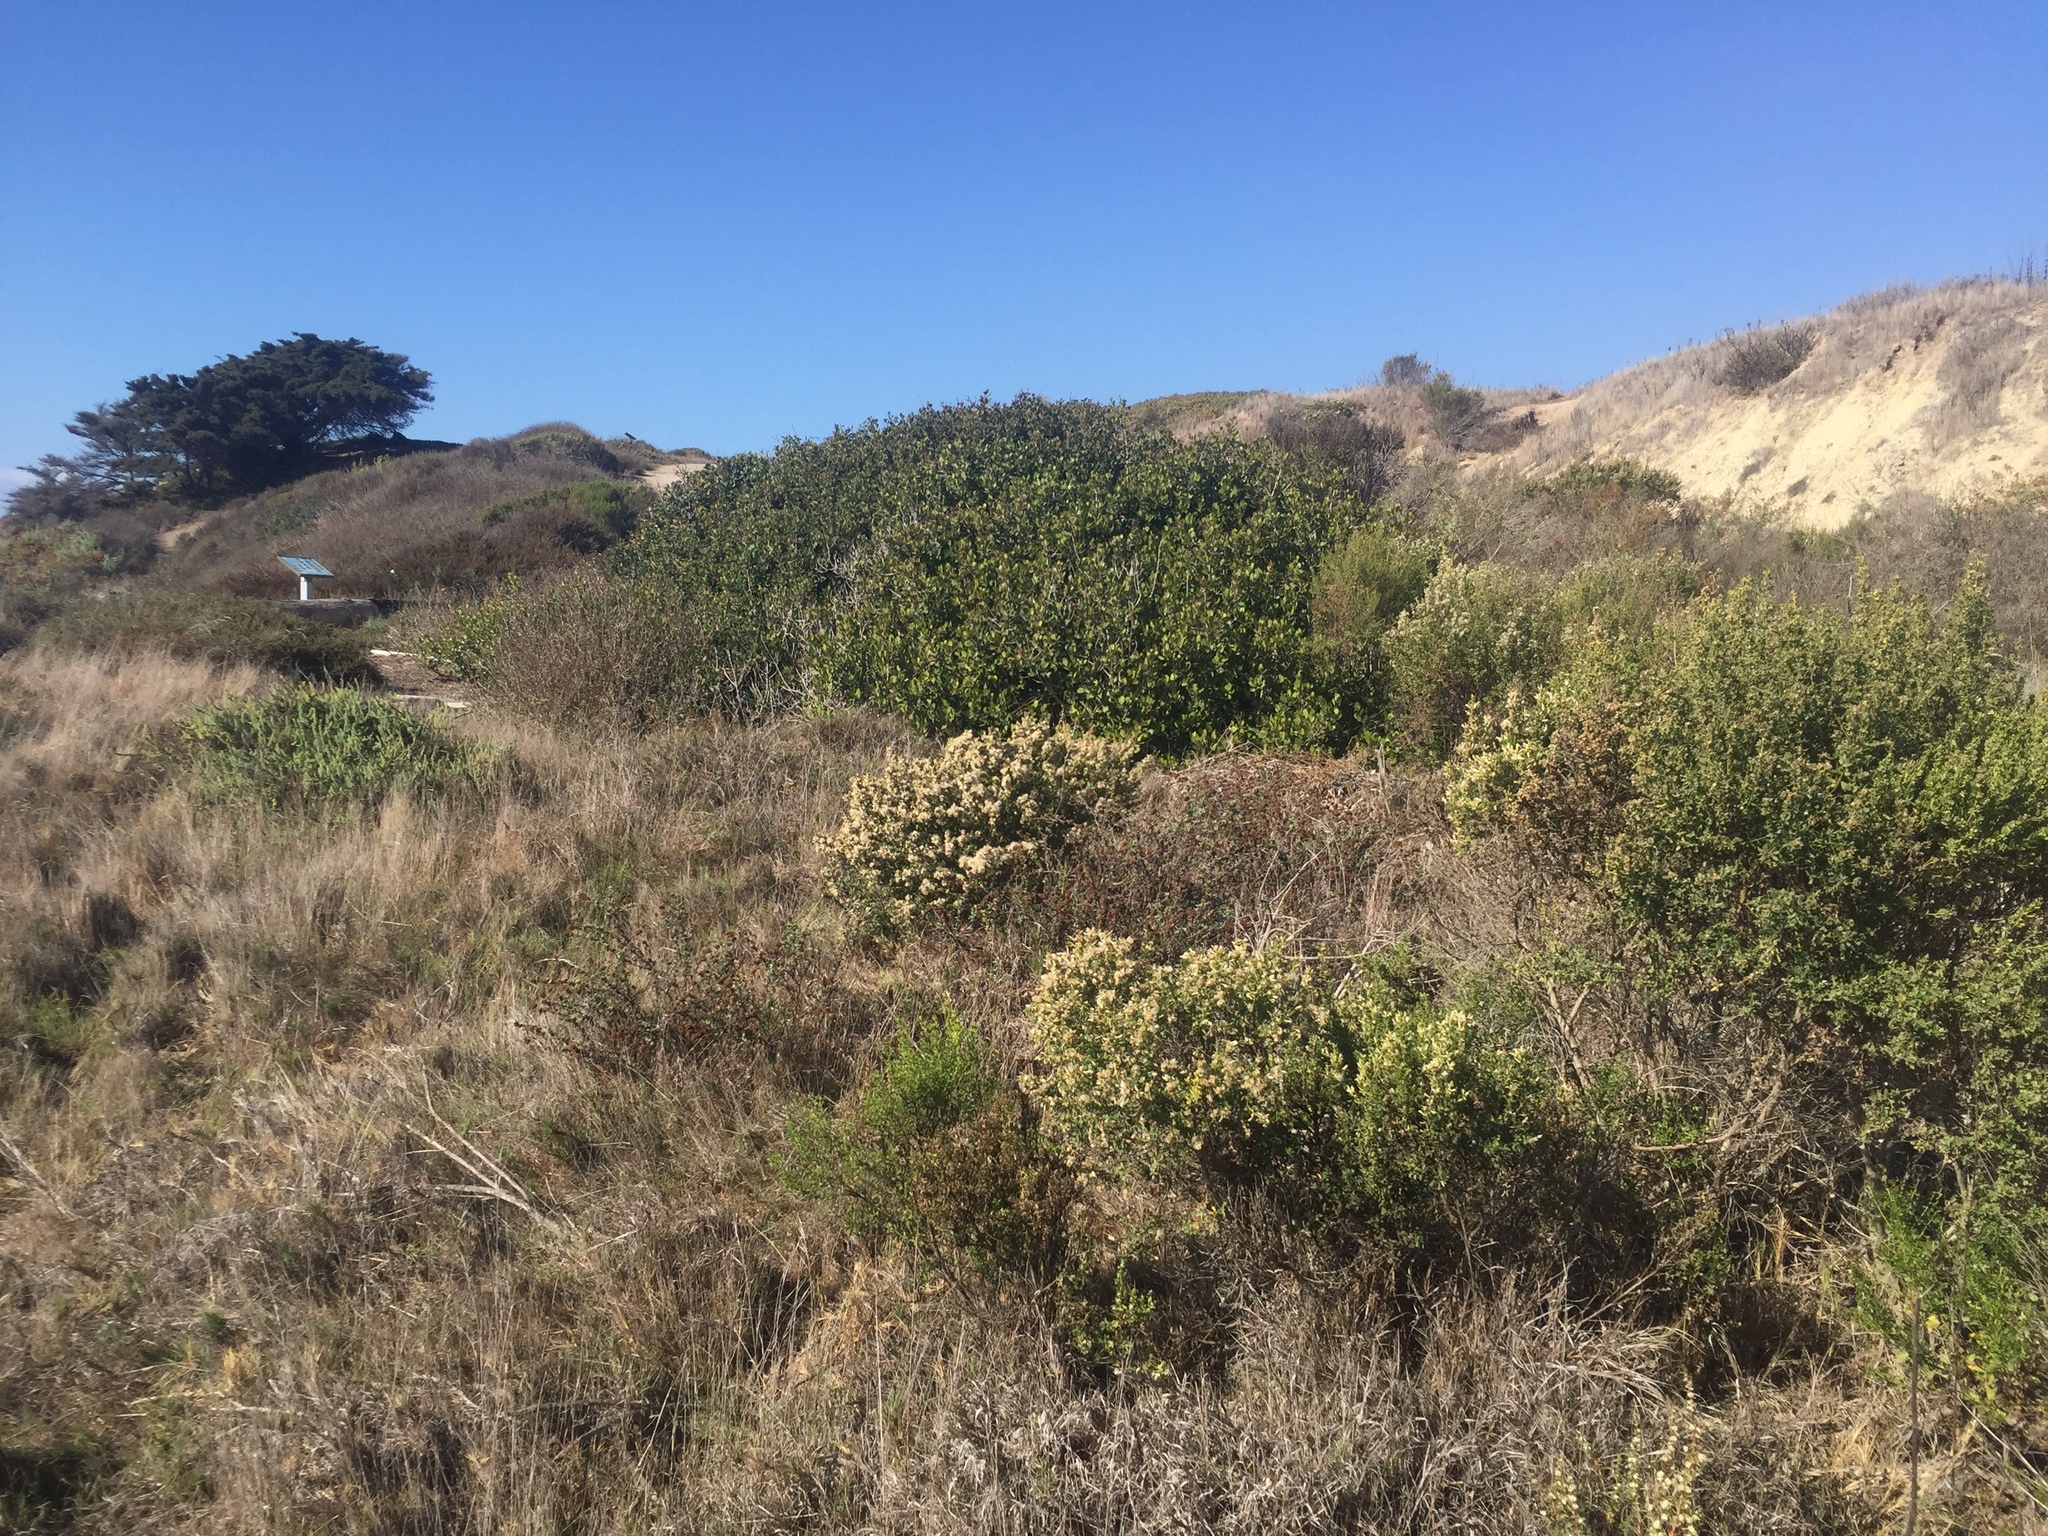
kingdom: Plantae
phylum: Tracheophyta
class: Magnoliopsida
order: Asterales
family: Asteraceae
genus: Baccharis
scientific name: Baccharis pilularis
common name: Coyotebrush
